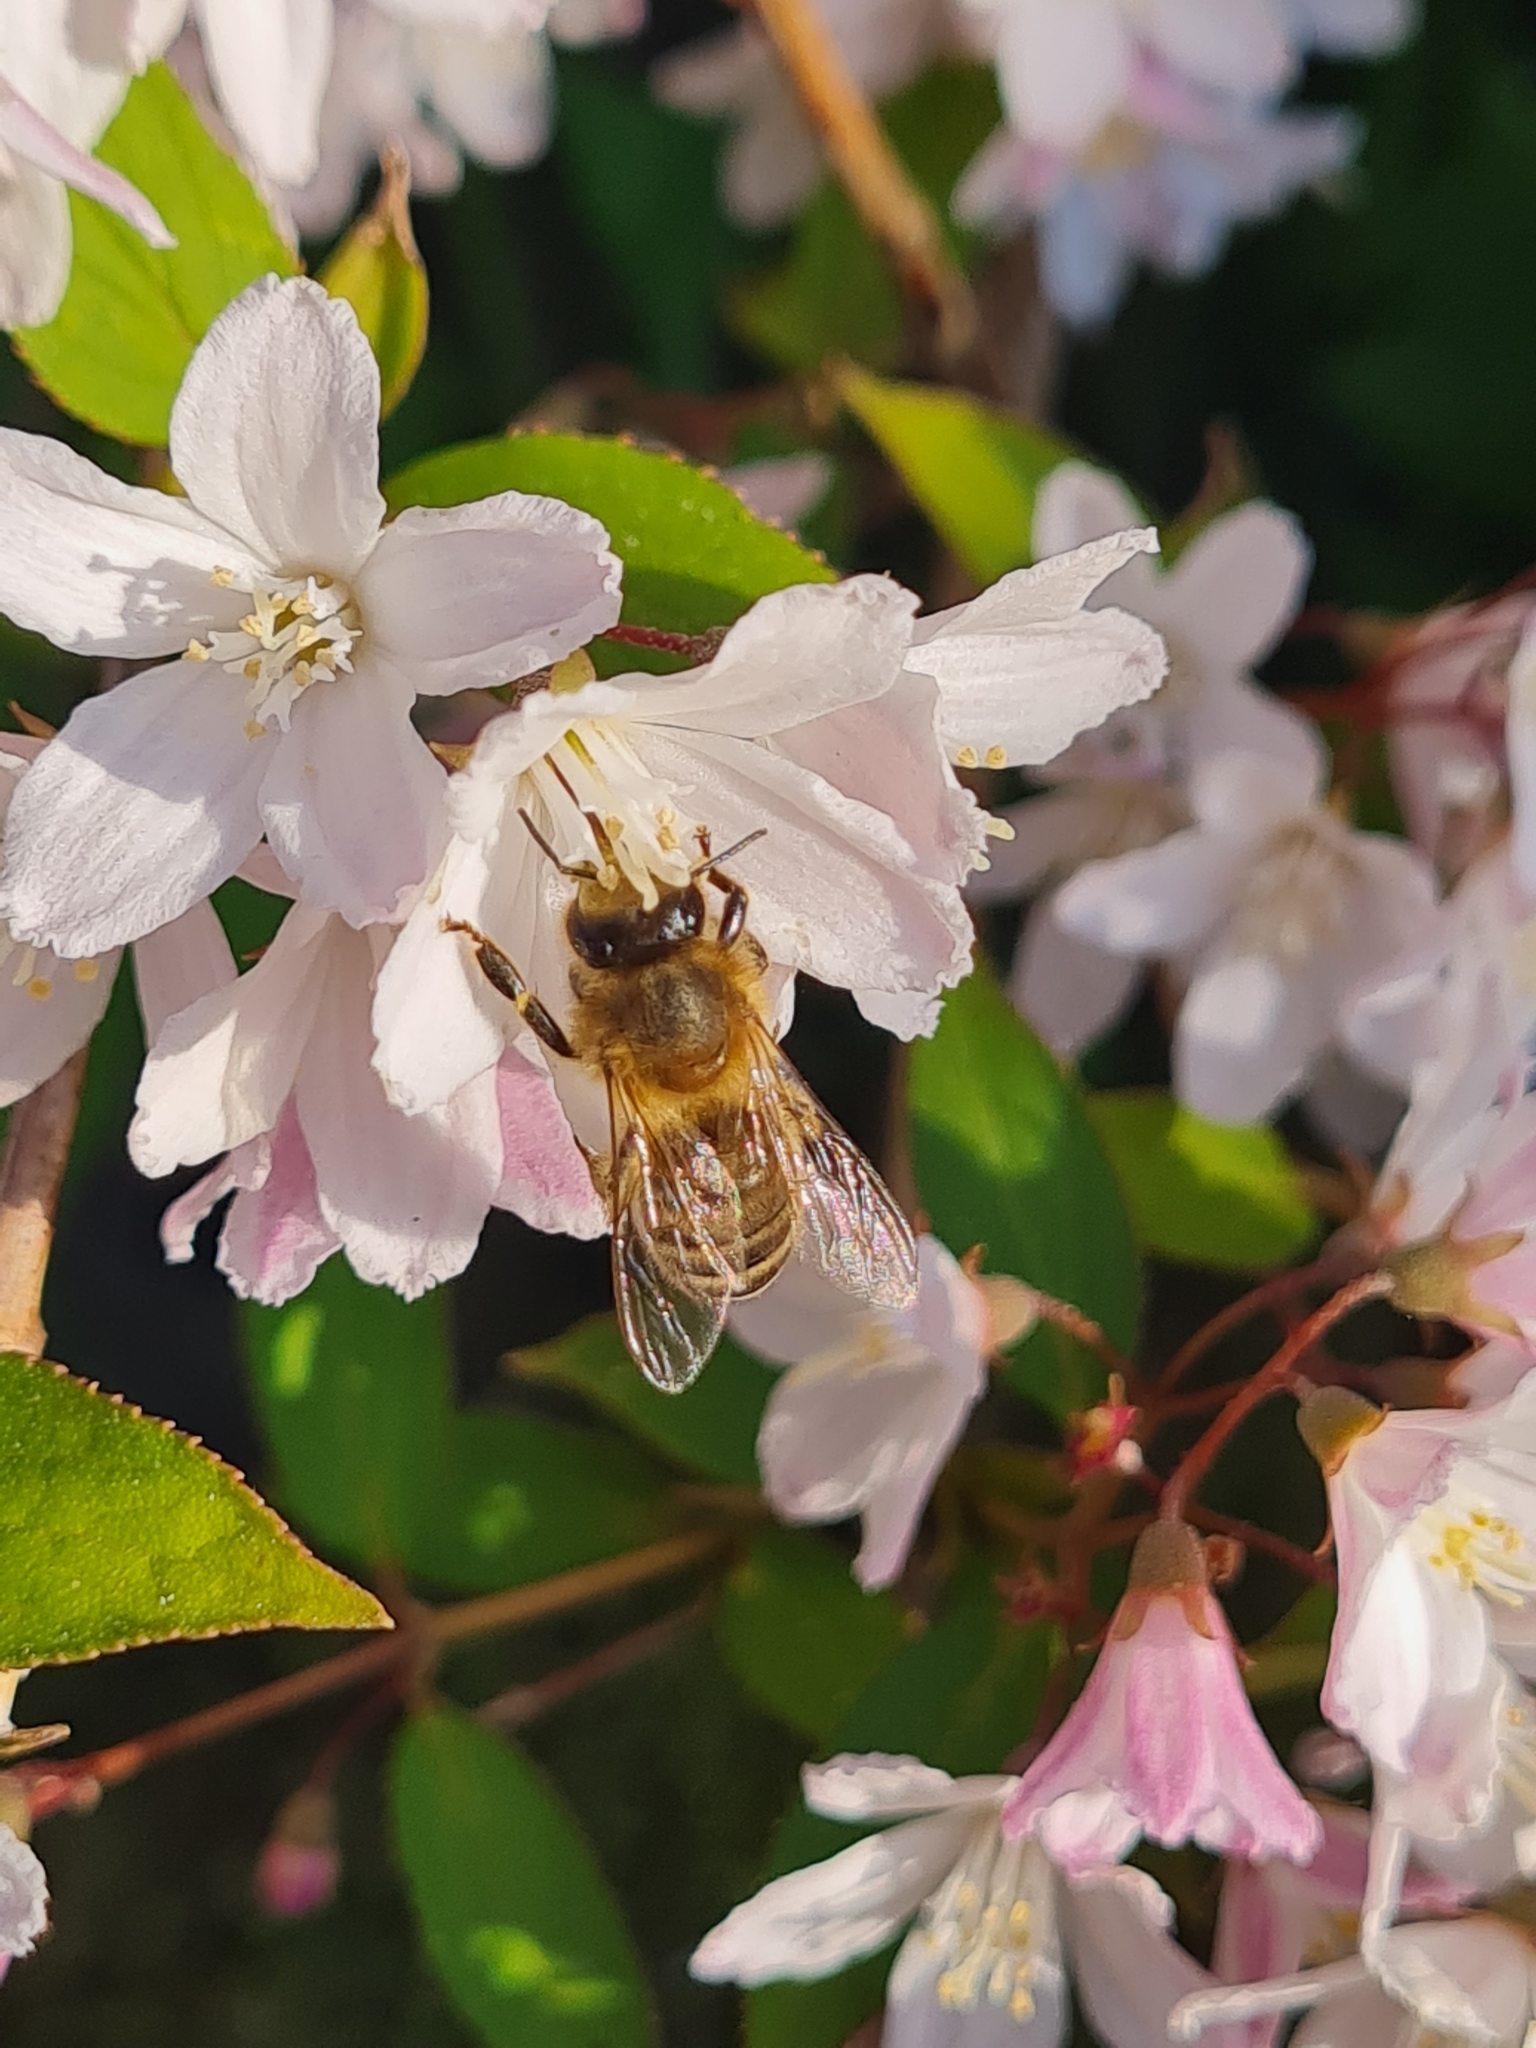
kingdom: Animalia
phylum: Arthropoda
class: Insecta
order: Hymenoptera
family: Apidae
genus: Apis
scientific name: Apis mellifera
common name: Honey bee
